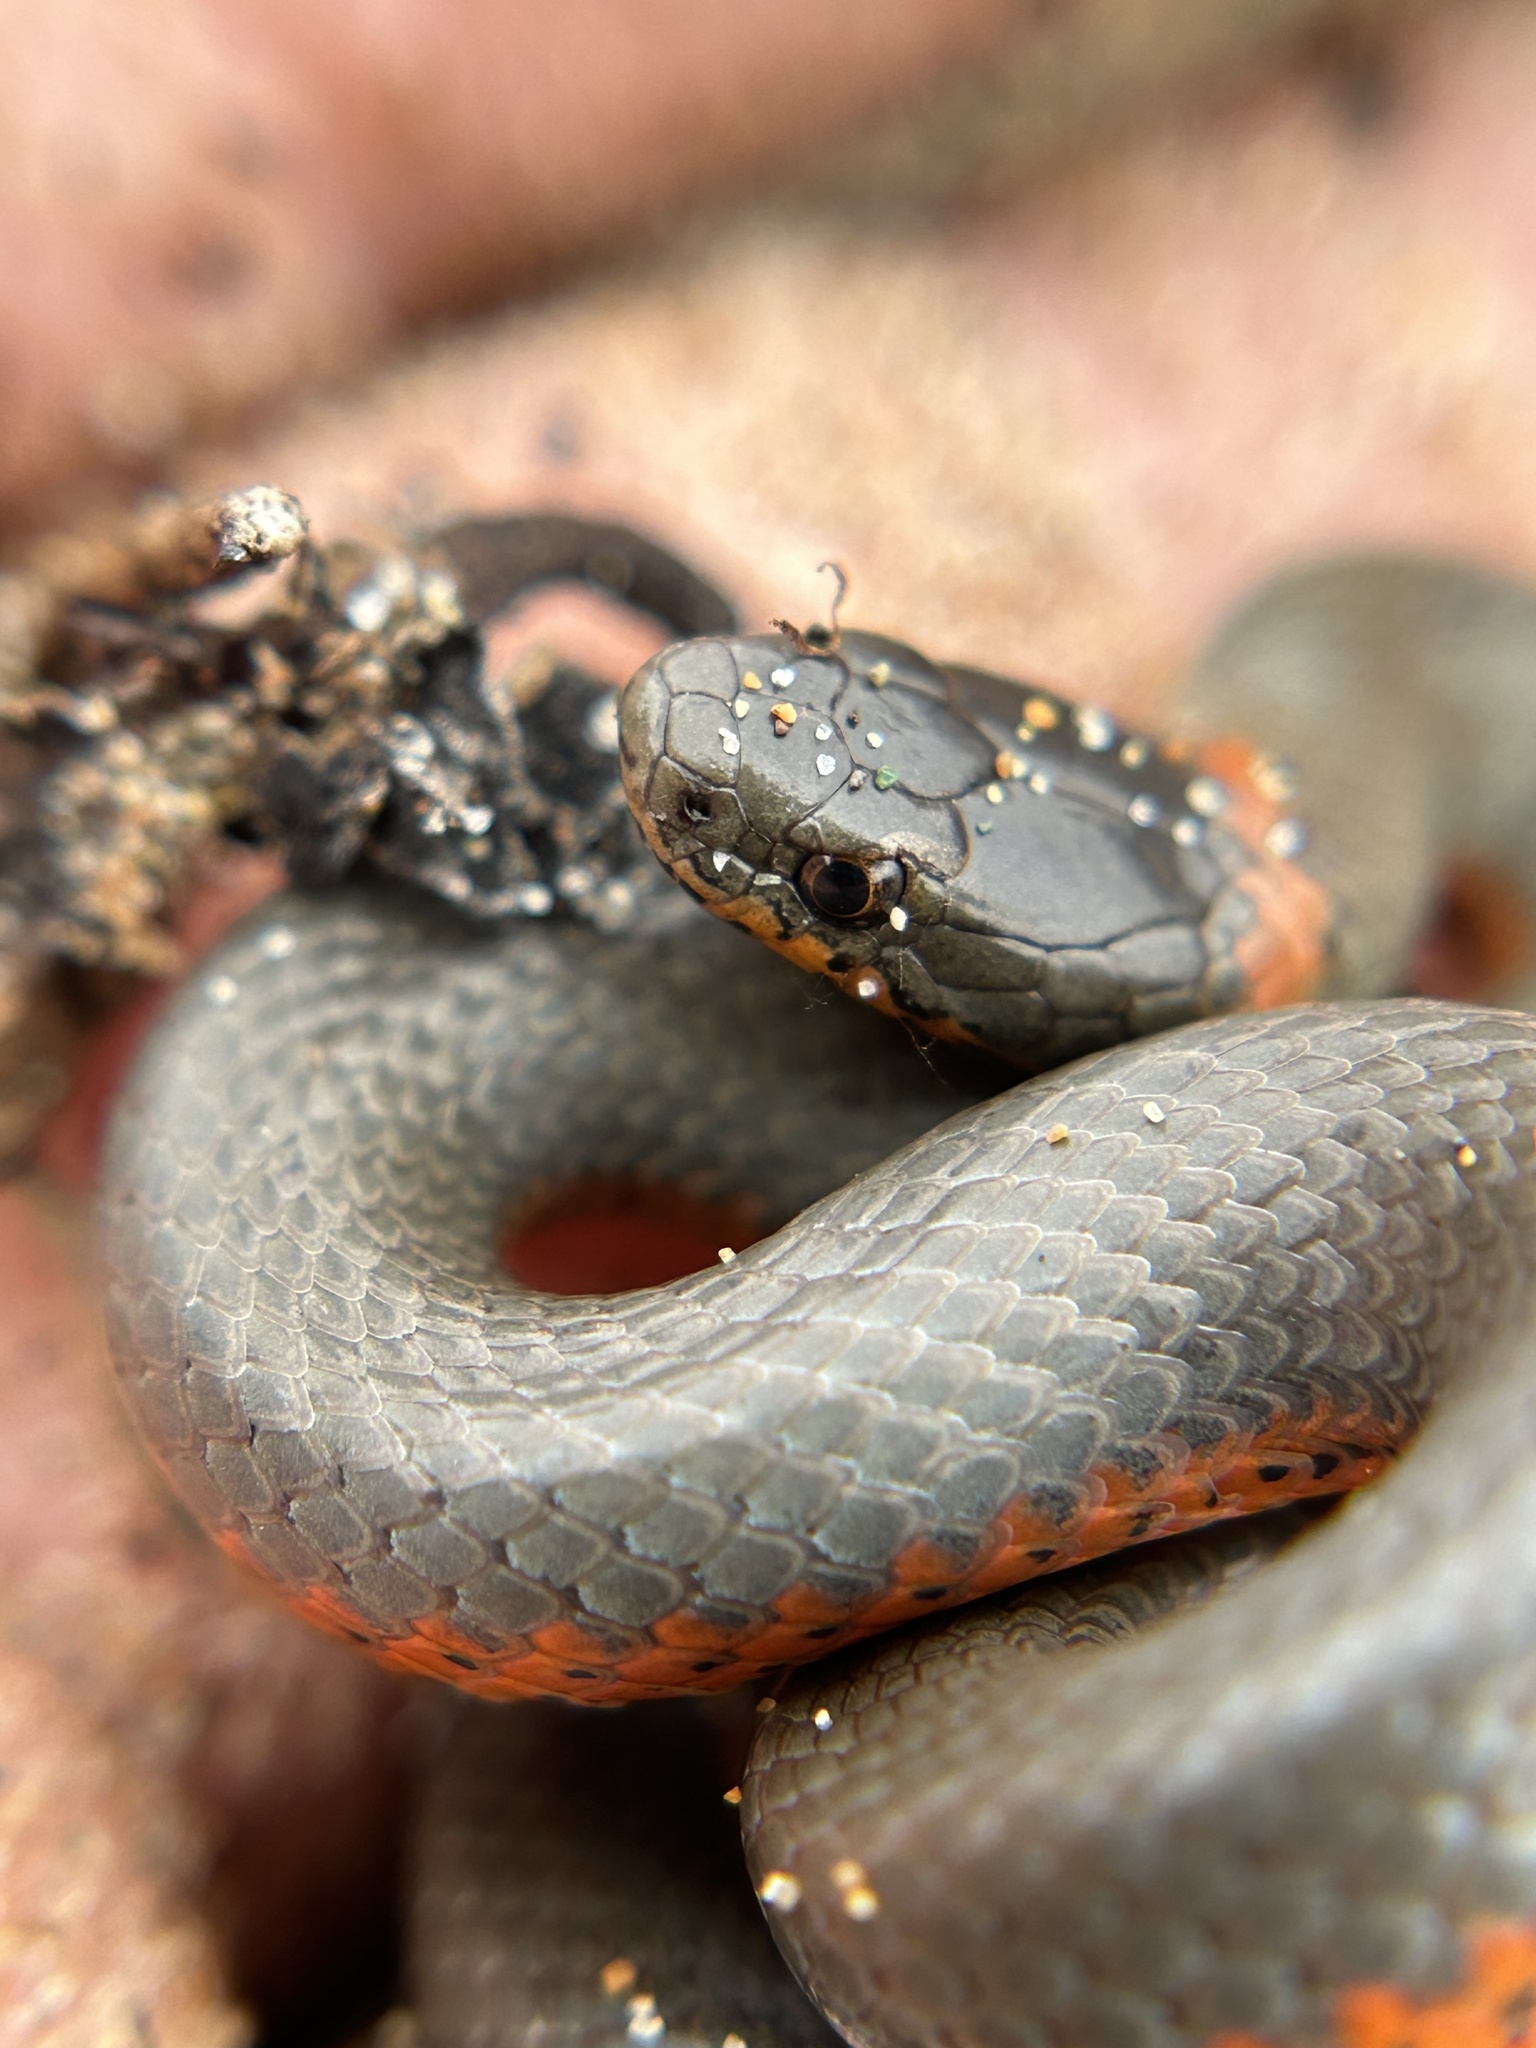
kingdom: Animalia
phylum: Chordata
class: Squamata
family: Colubridae
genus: Diadophis
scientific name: Diadophis punctatus
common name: Ringneck snake
